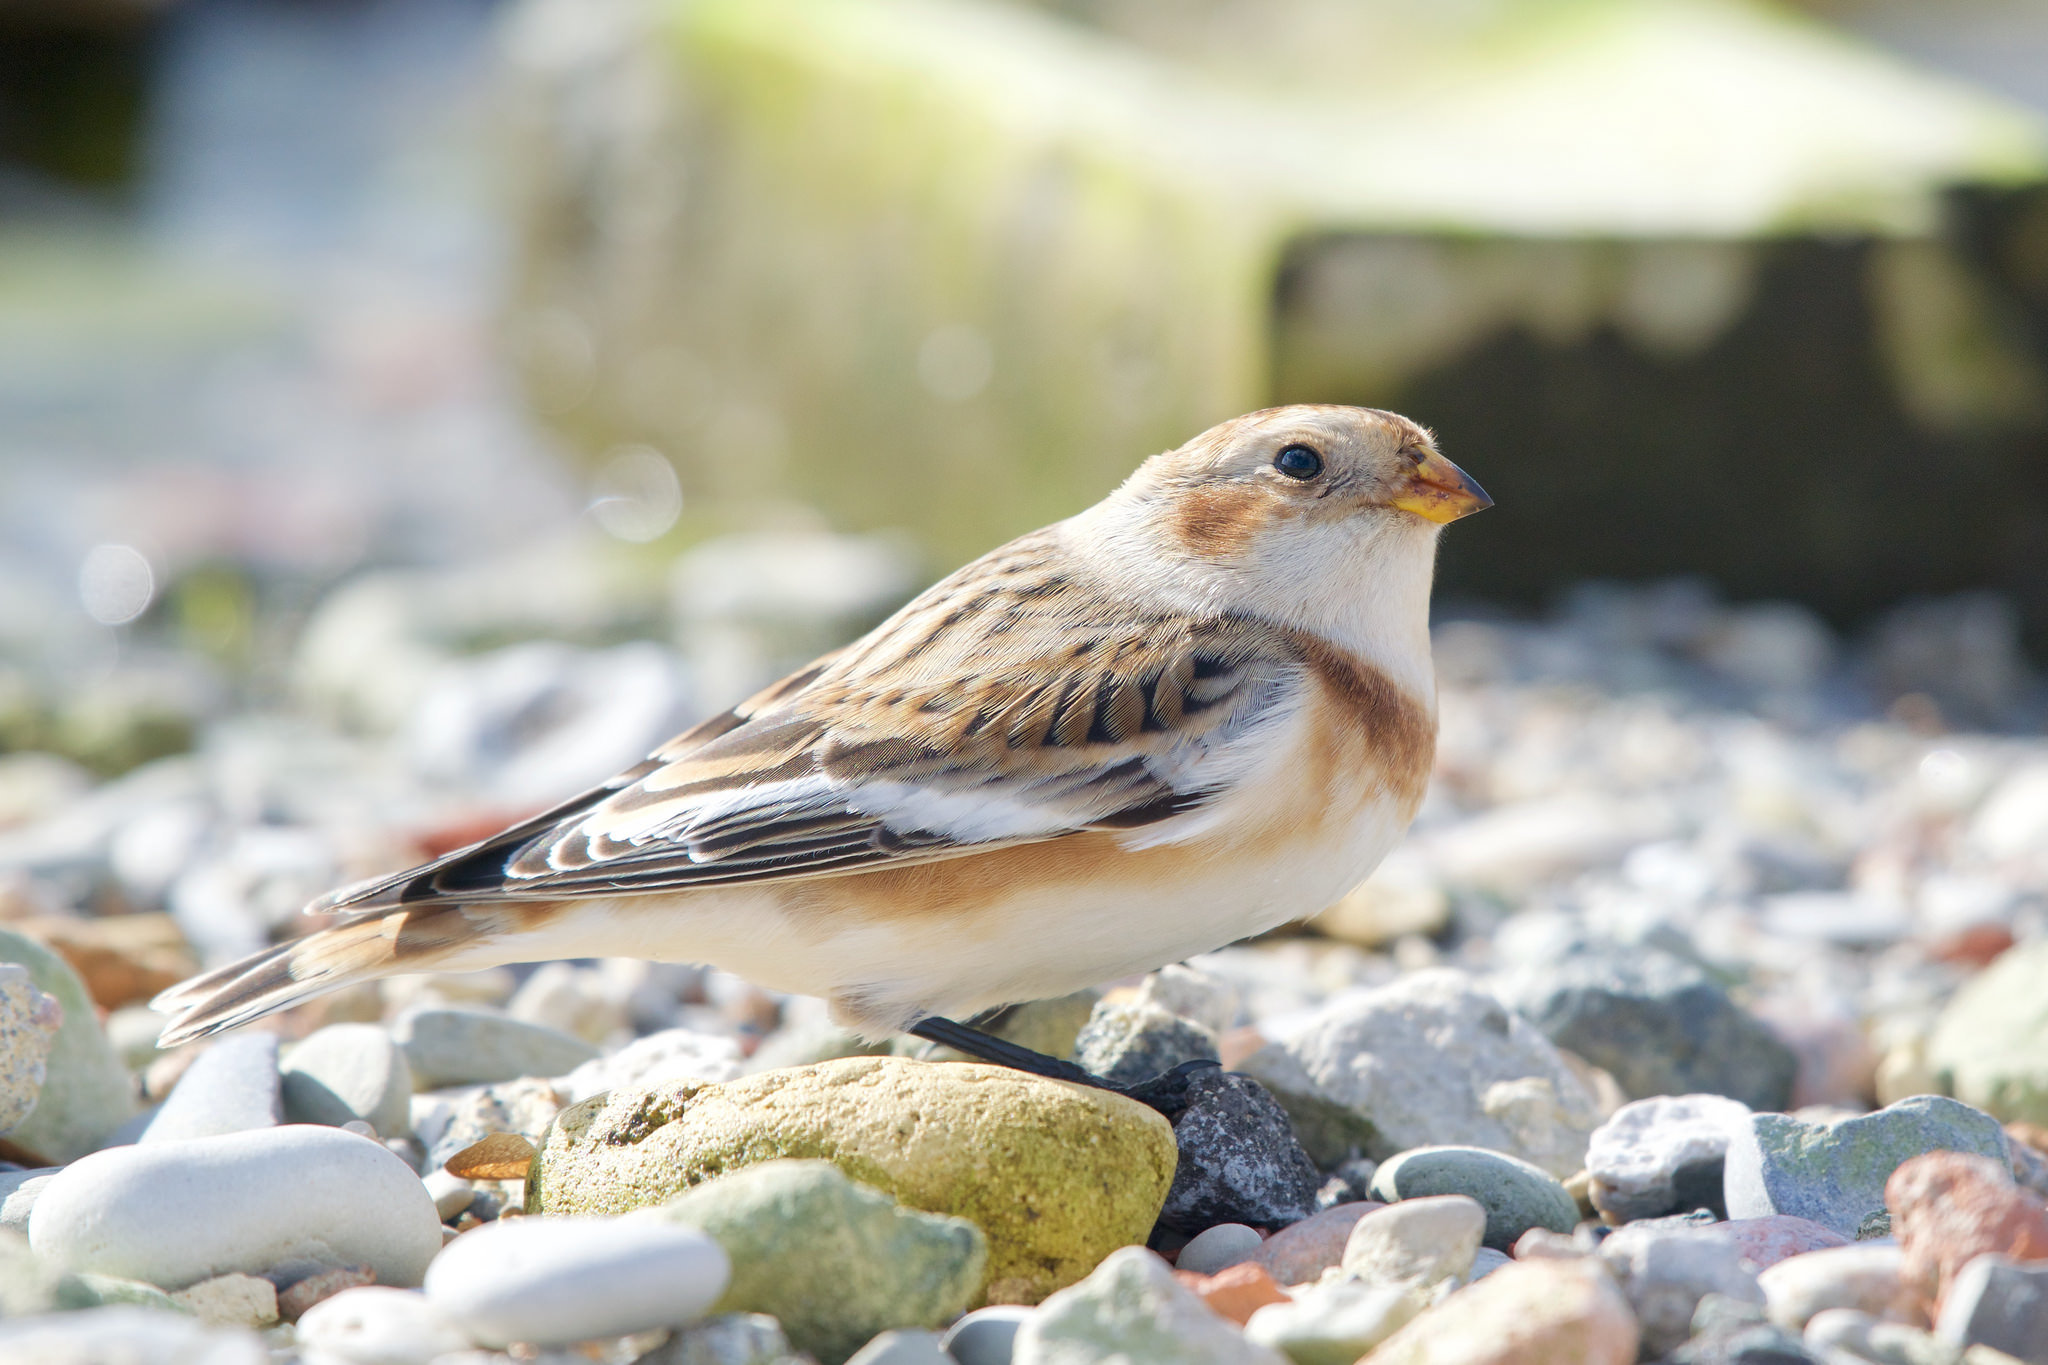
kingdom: Animalia
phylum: Chordata
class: Aves
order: Passeriformes
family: Calcariidae
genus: Plectrophenax
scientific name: Plectrophenax nivalis
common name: Snow bunting
